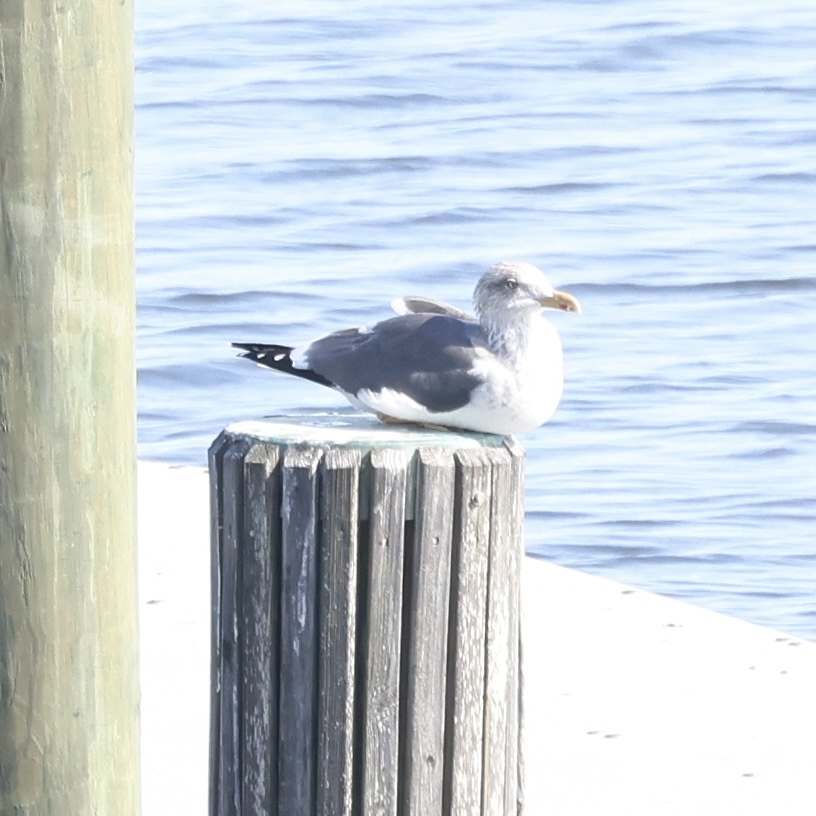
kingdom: Animalia
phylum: Chordata
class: Aves
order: Charadriiformes
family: Laridae
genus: Larus
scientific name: Larus fuscus
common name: Lesser black-backed gull
